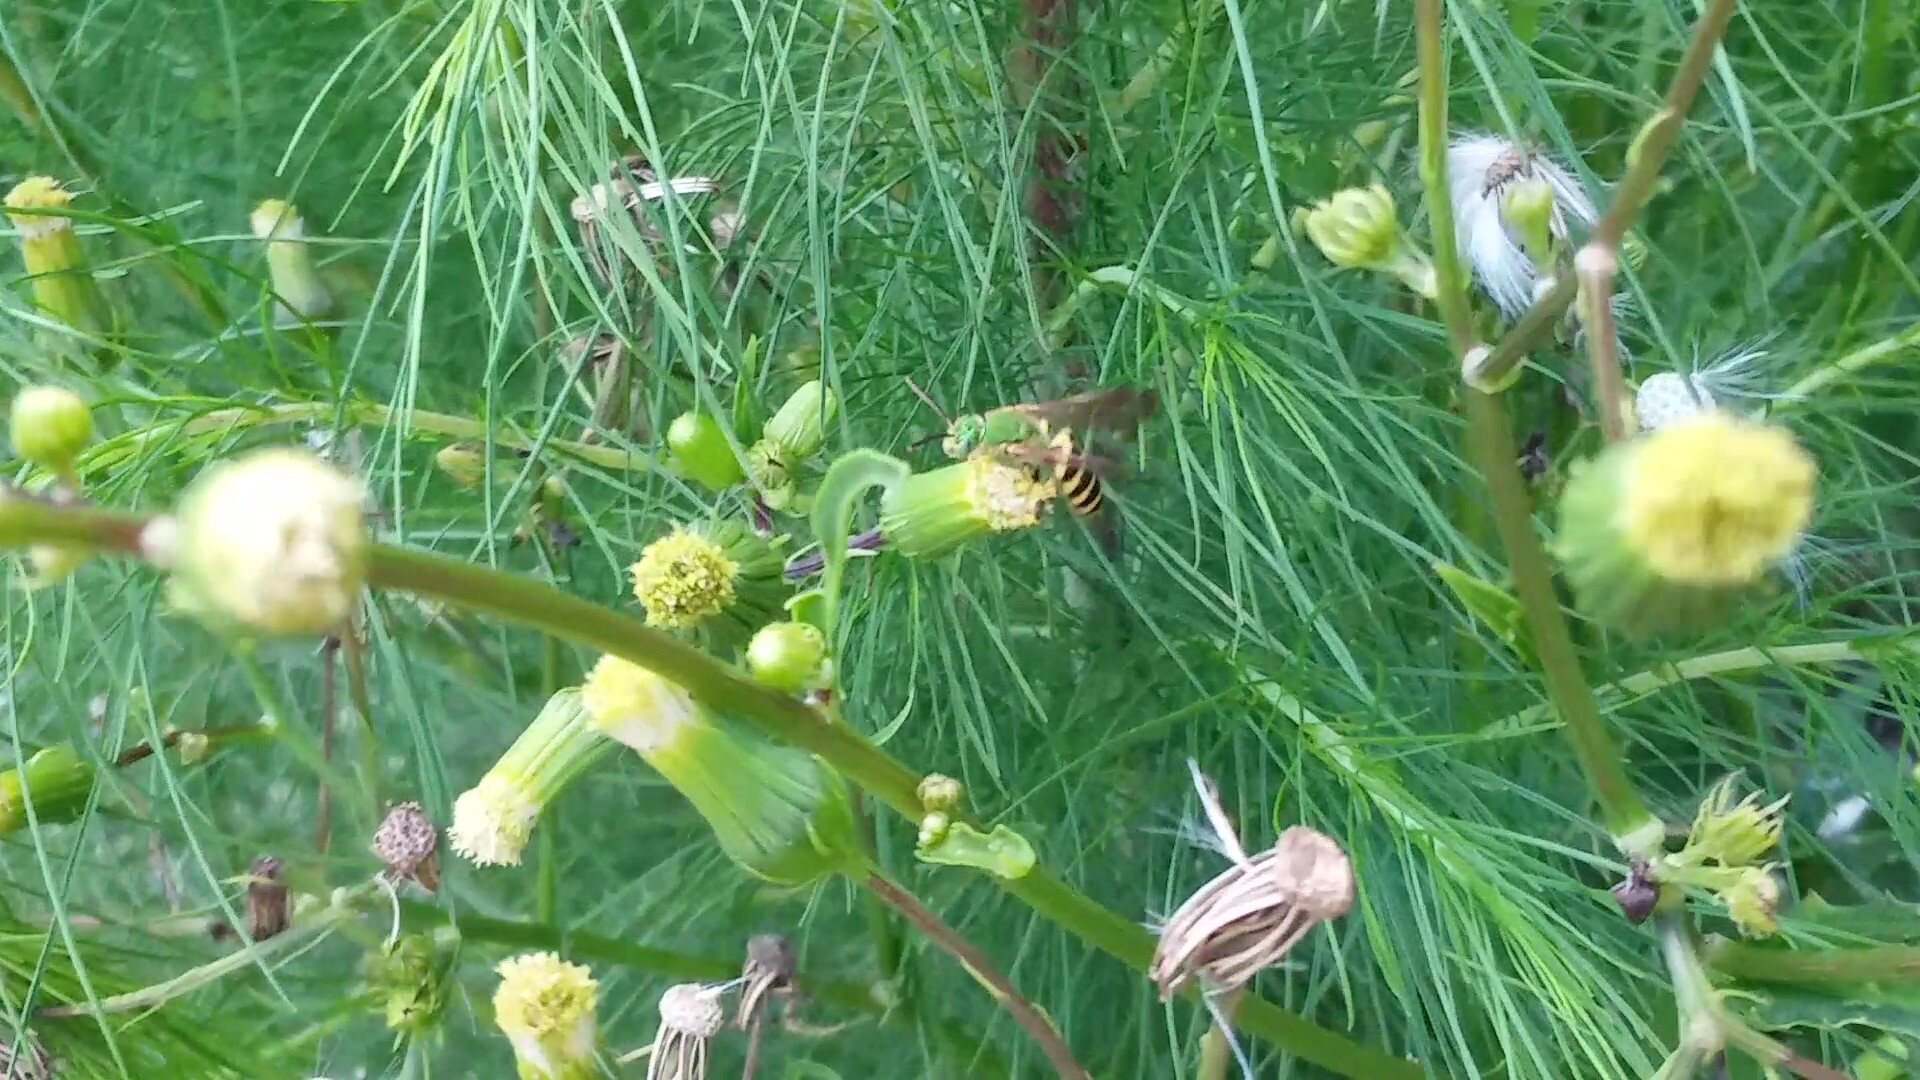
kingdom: Animalia
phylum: Arthropoda
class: Insecta
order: Hymenoptera
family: Halictidae
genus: Agapostemon
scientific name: Agapostemon splendens
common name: Brown-winged striped sweat bee
